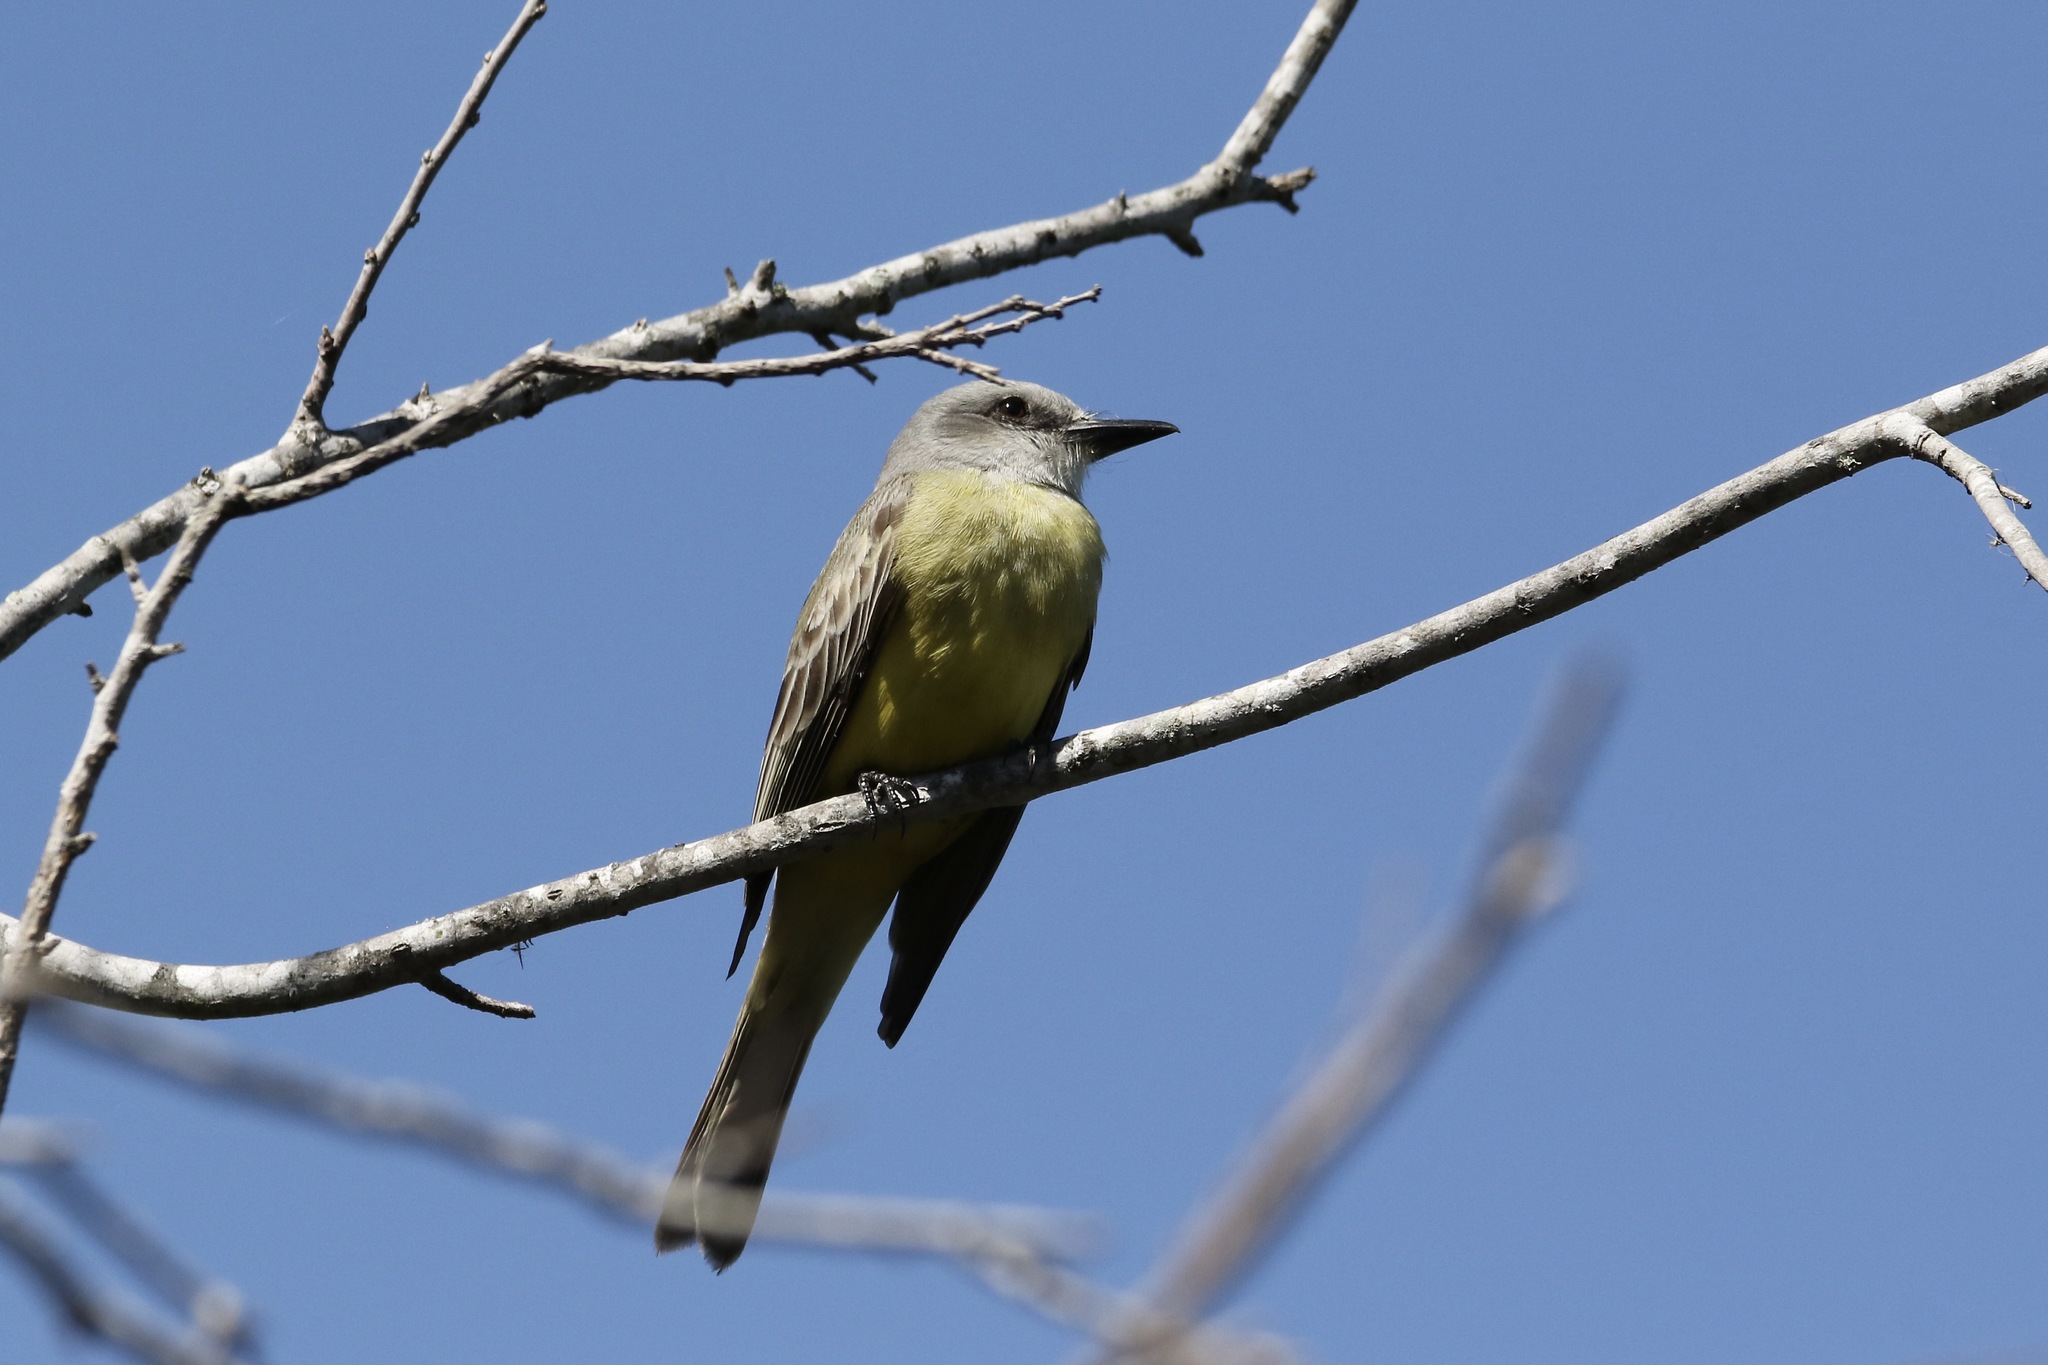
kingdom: Animalia
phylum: Chordata
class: Aves
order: Passeriformes
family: Tyrannidae
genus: Tyrannus
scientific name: Tyrannus melancholicus
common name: Tropical kingbird
